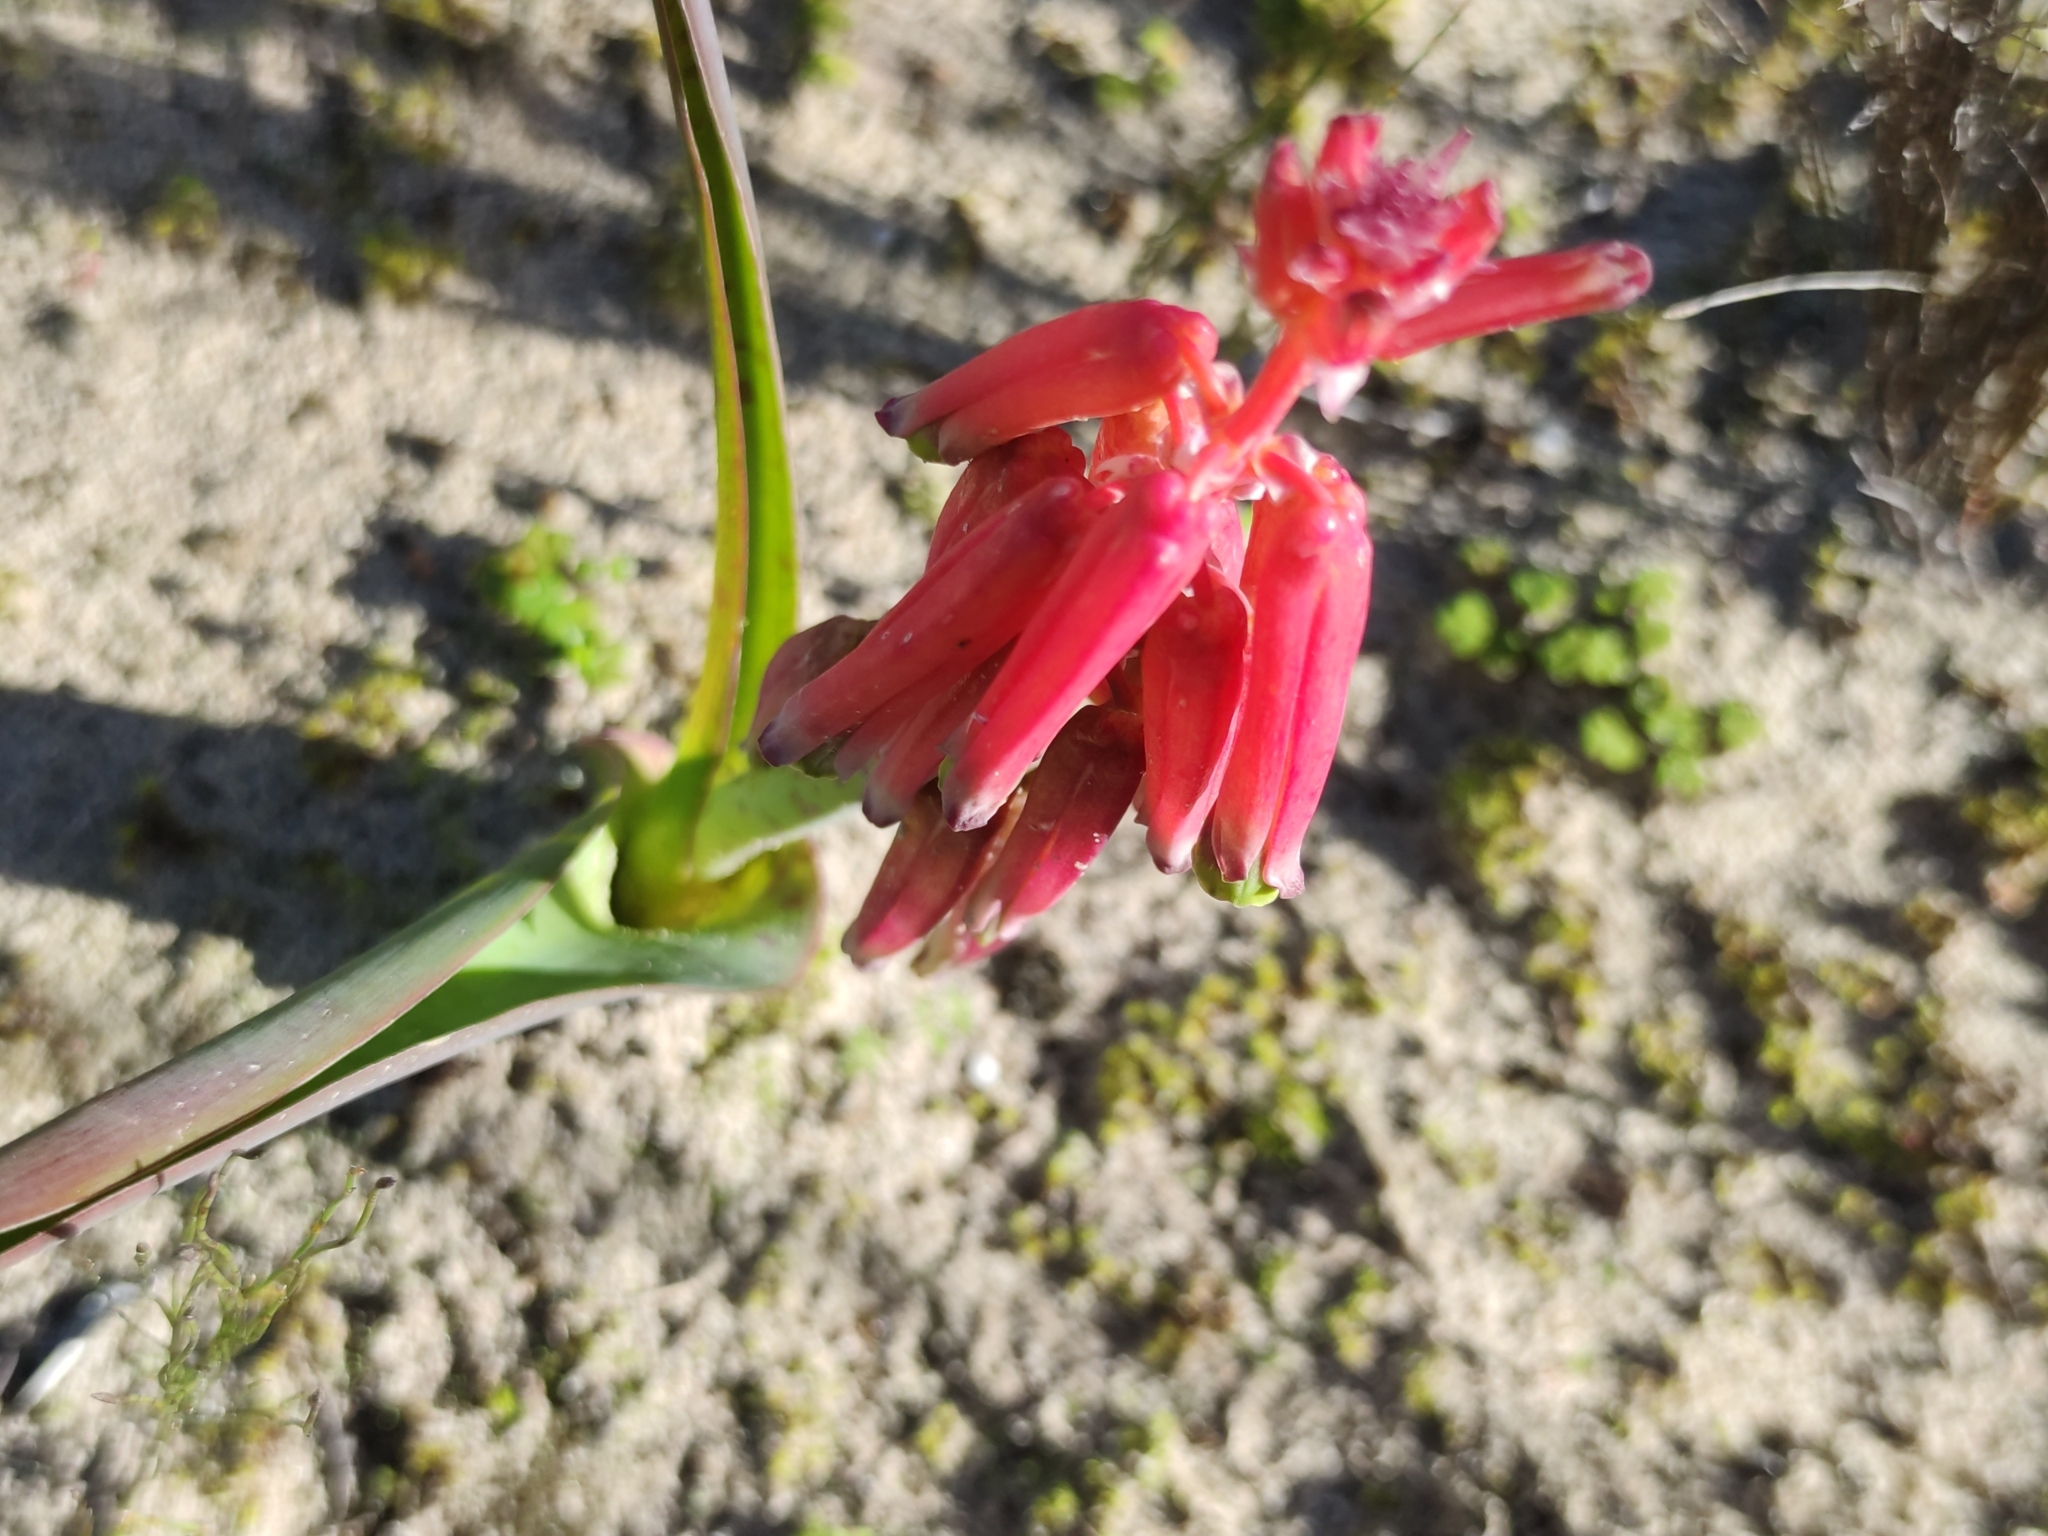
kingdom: Plantae
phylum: Tracheophyta
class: Liliopsida
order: Asparagales
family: Asparagaceae
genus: Lachenalia
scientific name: Lachenalia bulbifera
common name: Red lachenalia
